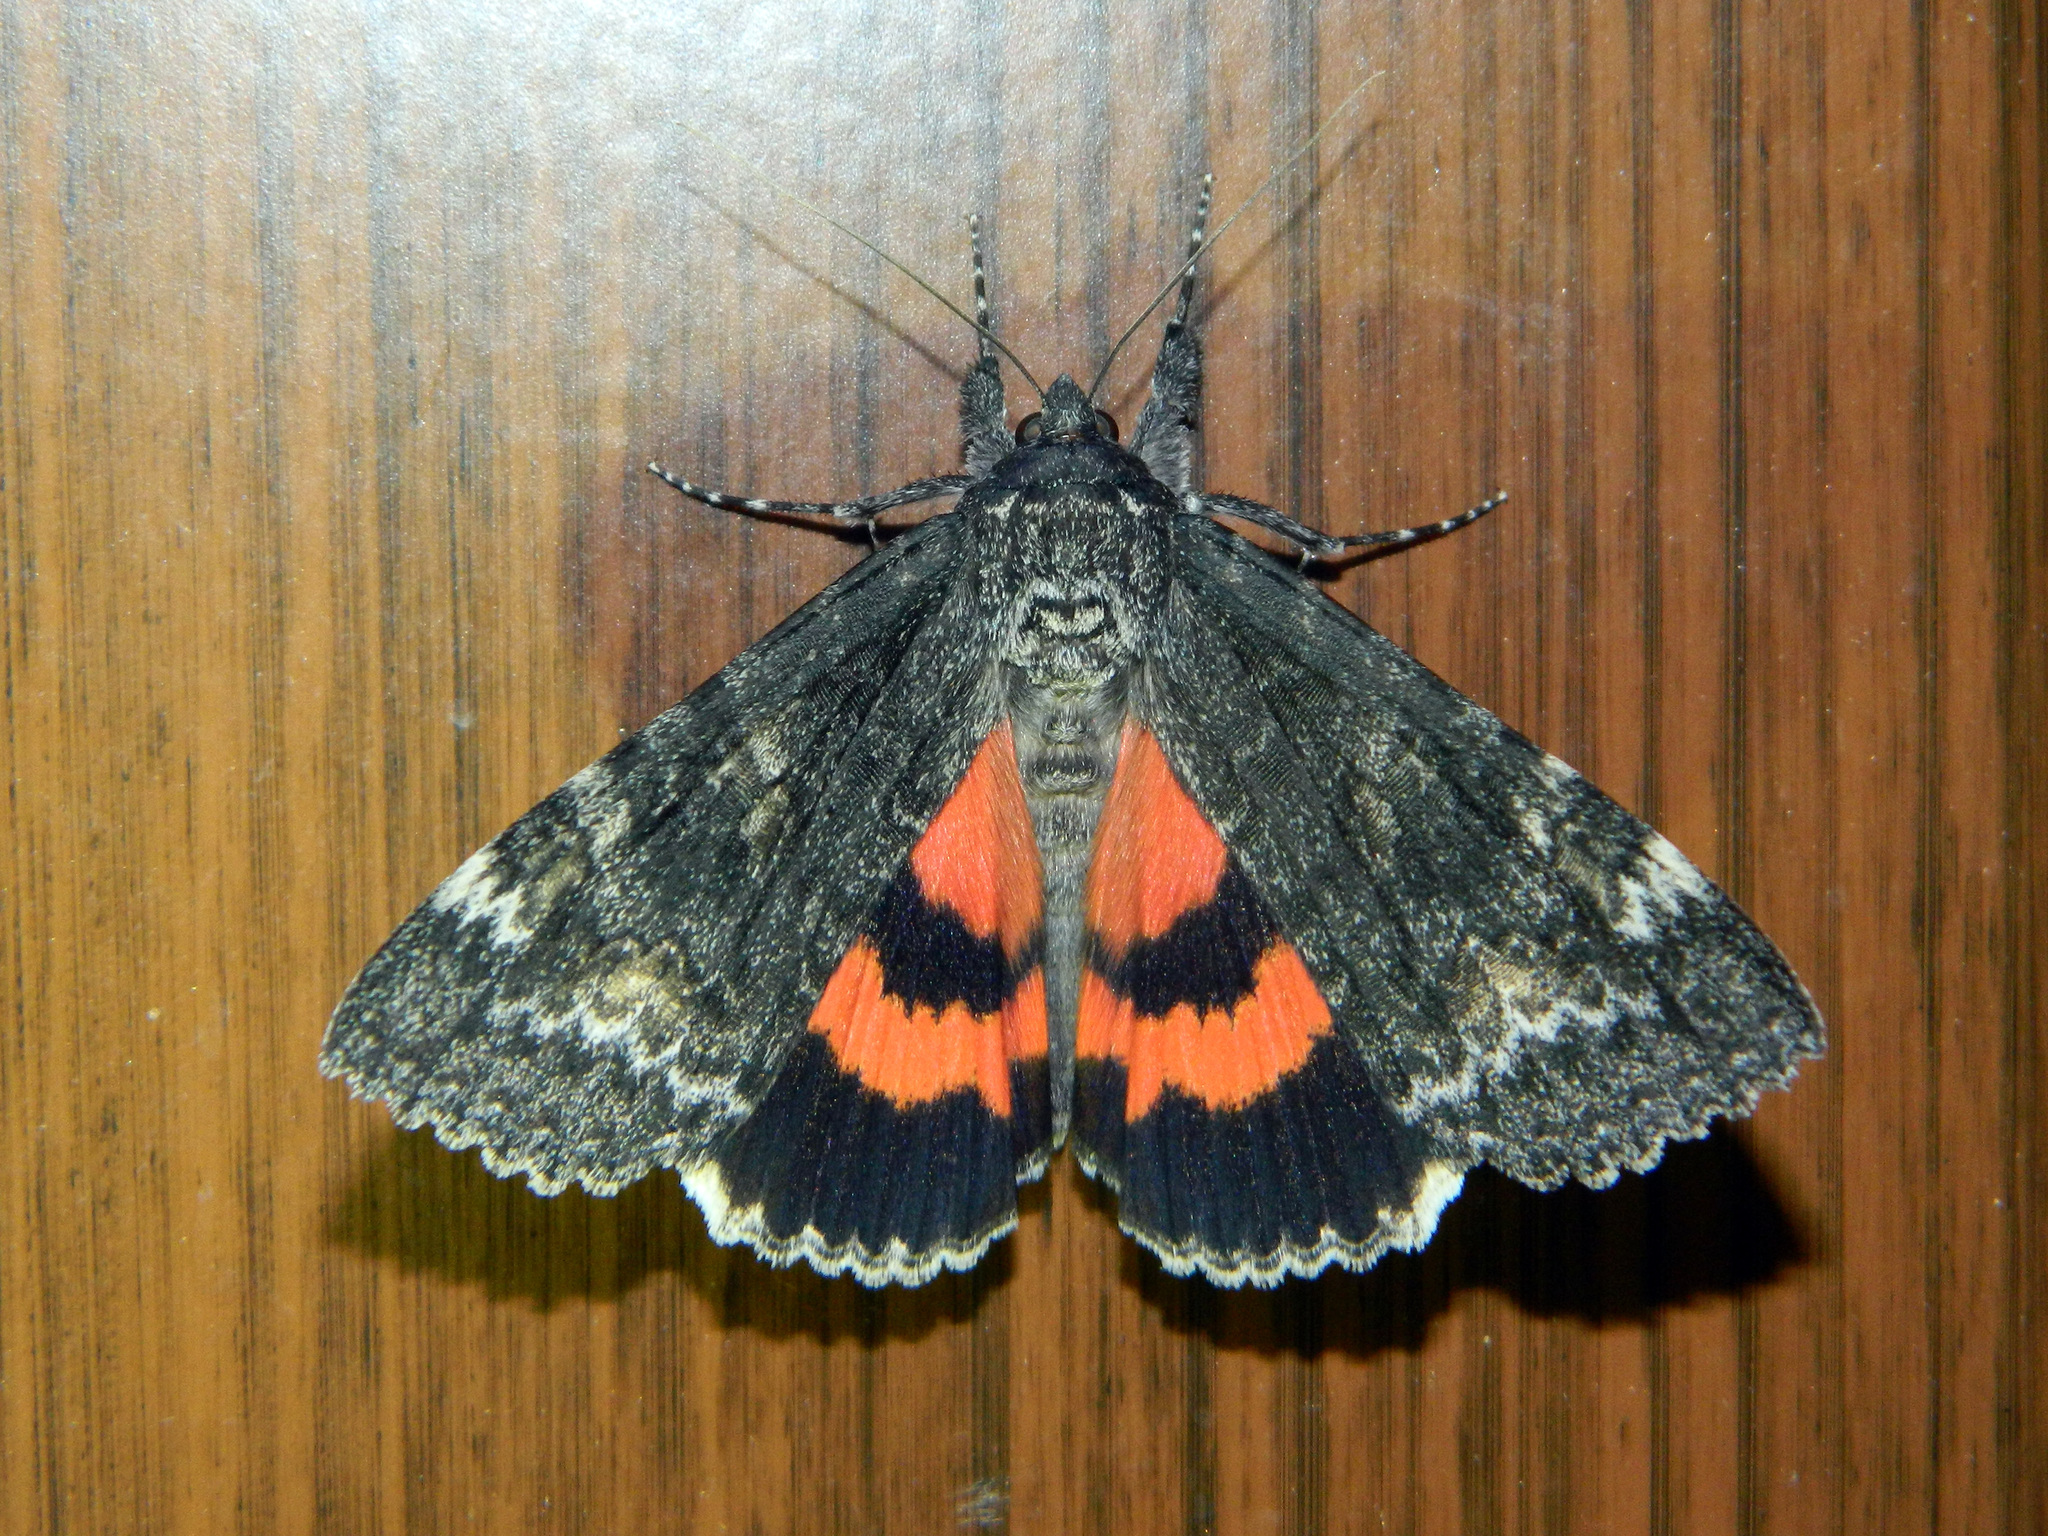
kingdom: Animalia
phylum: Arthropoda
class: Insecta
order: Lepidoptera
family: Erebidae
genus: Catocala
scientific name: Catocala briseis
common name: Briseis underwing
